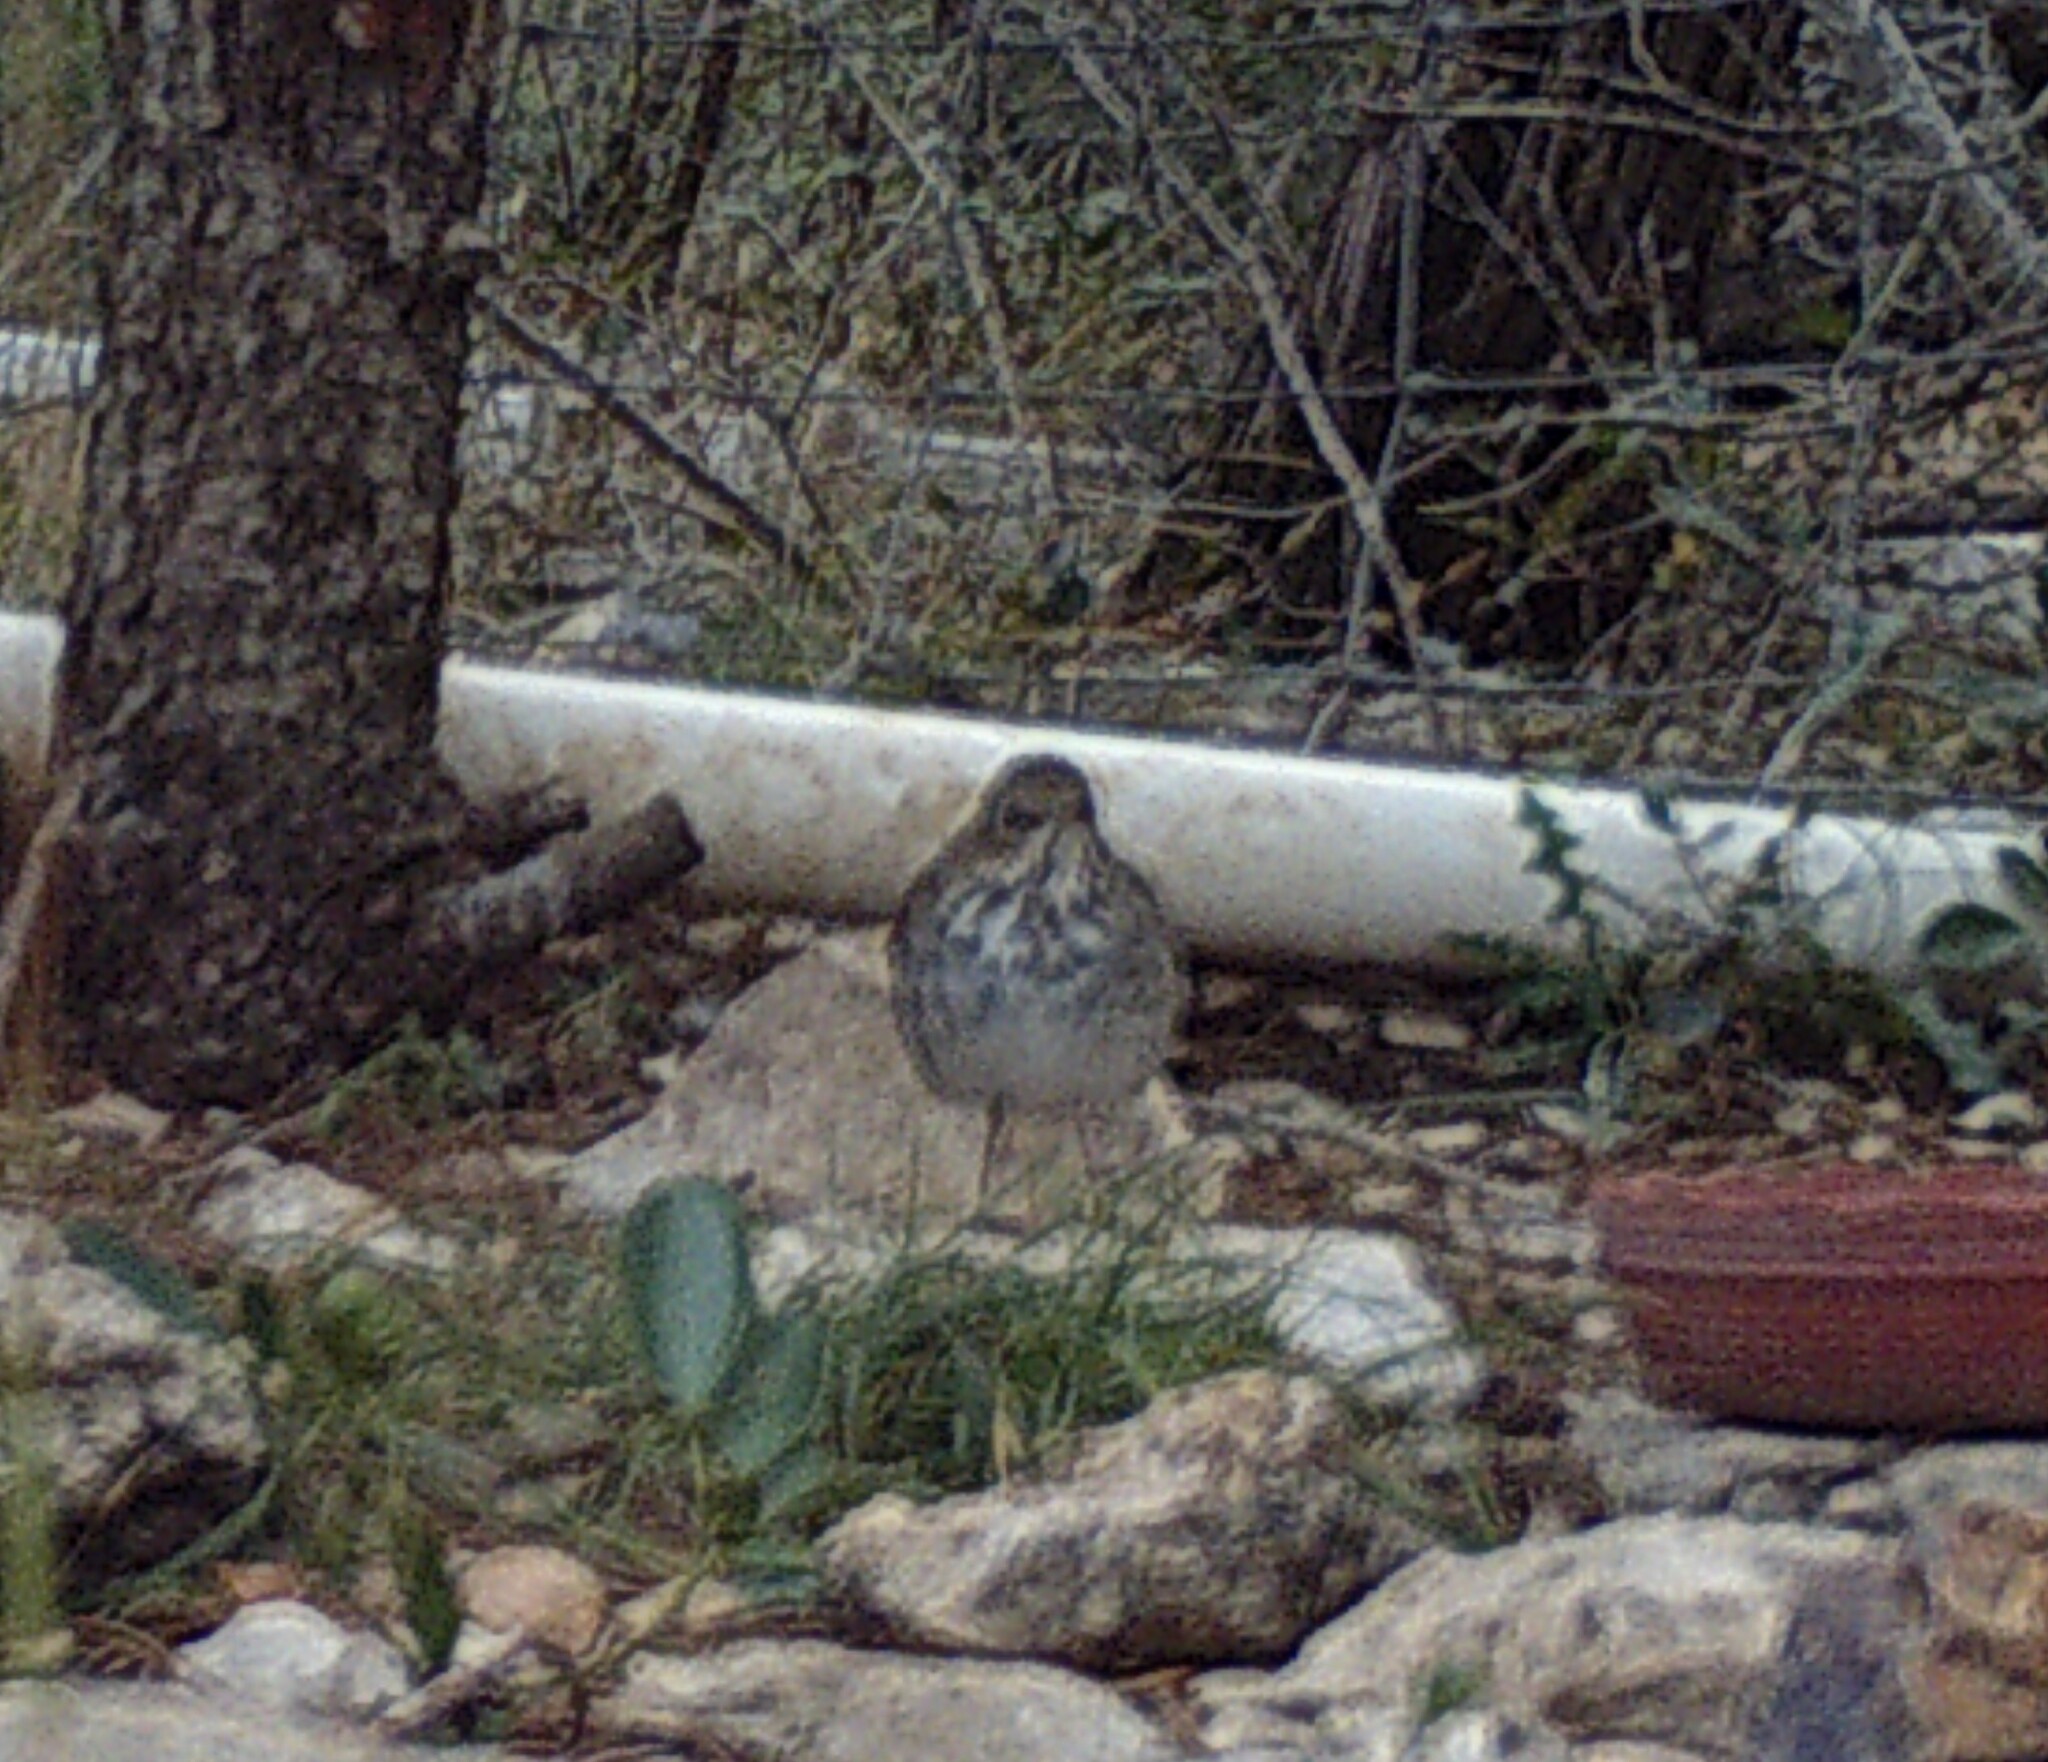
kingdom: Animalia
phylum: Chordata
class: Aves
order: Passeriformes
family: Turdidae
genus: Catharus
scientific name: Catharus guttatus
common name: Hermit thrush
